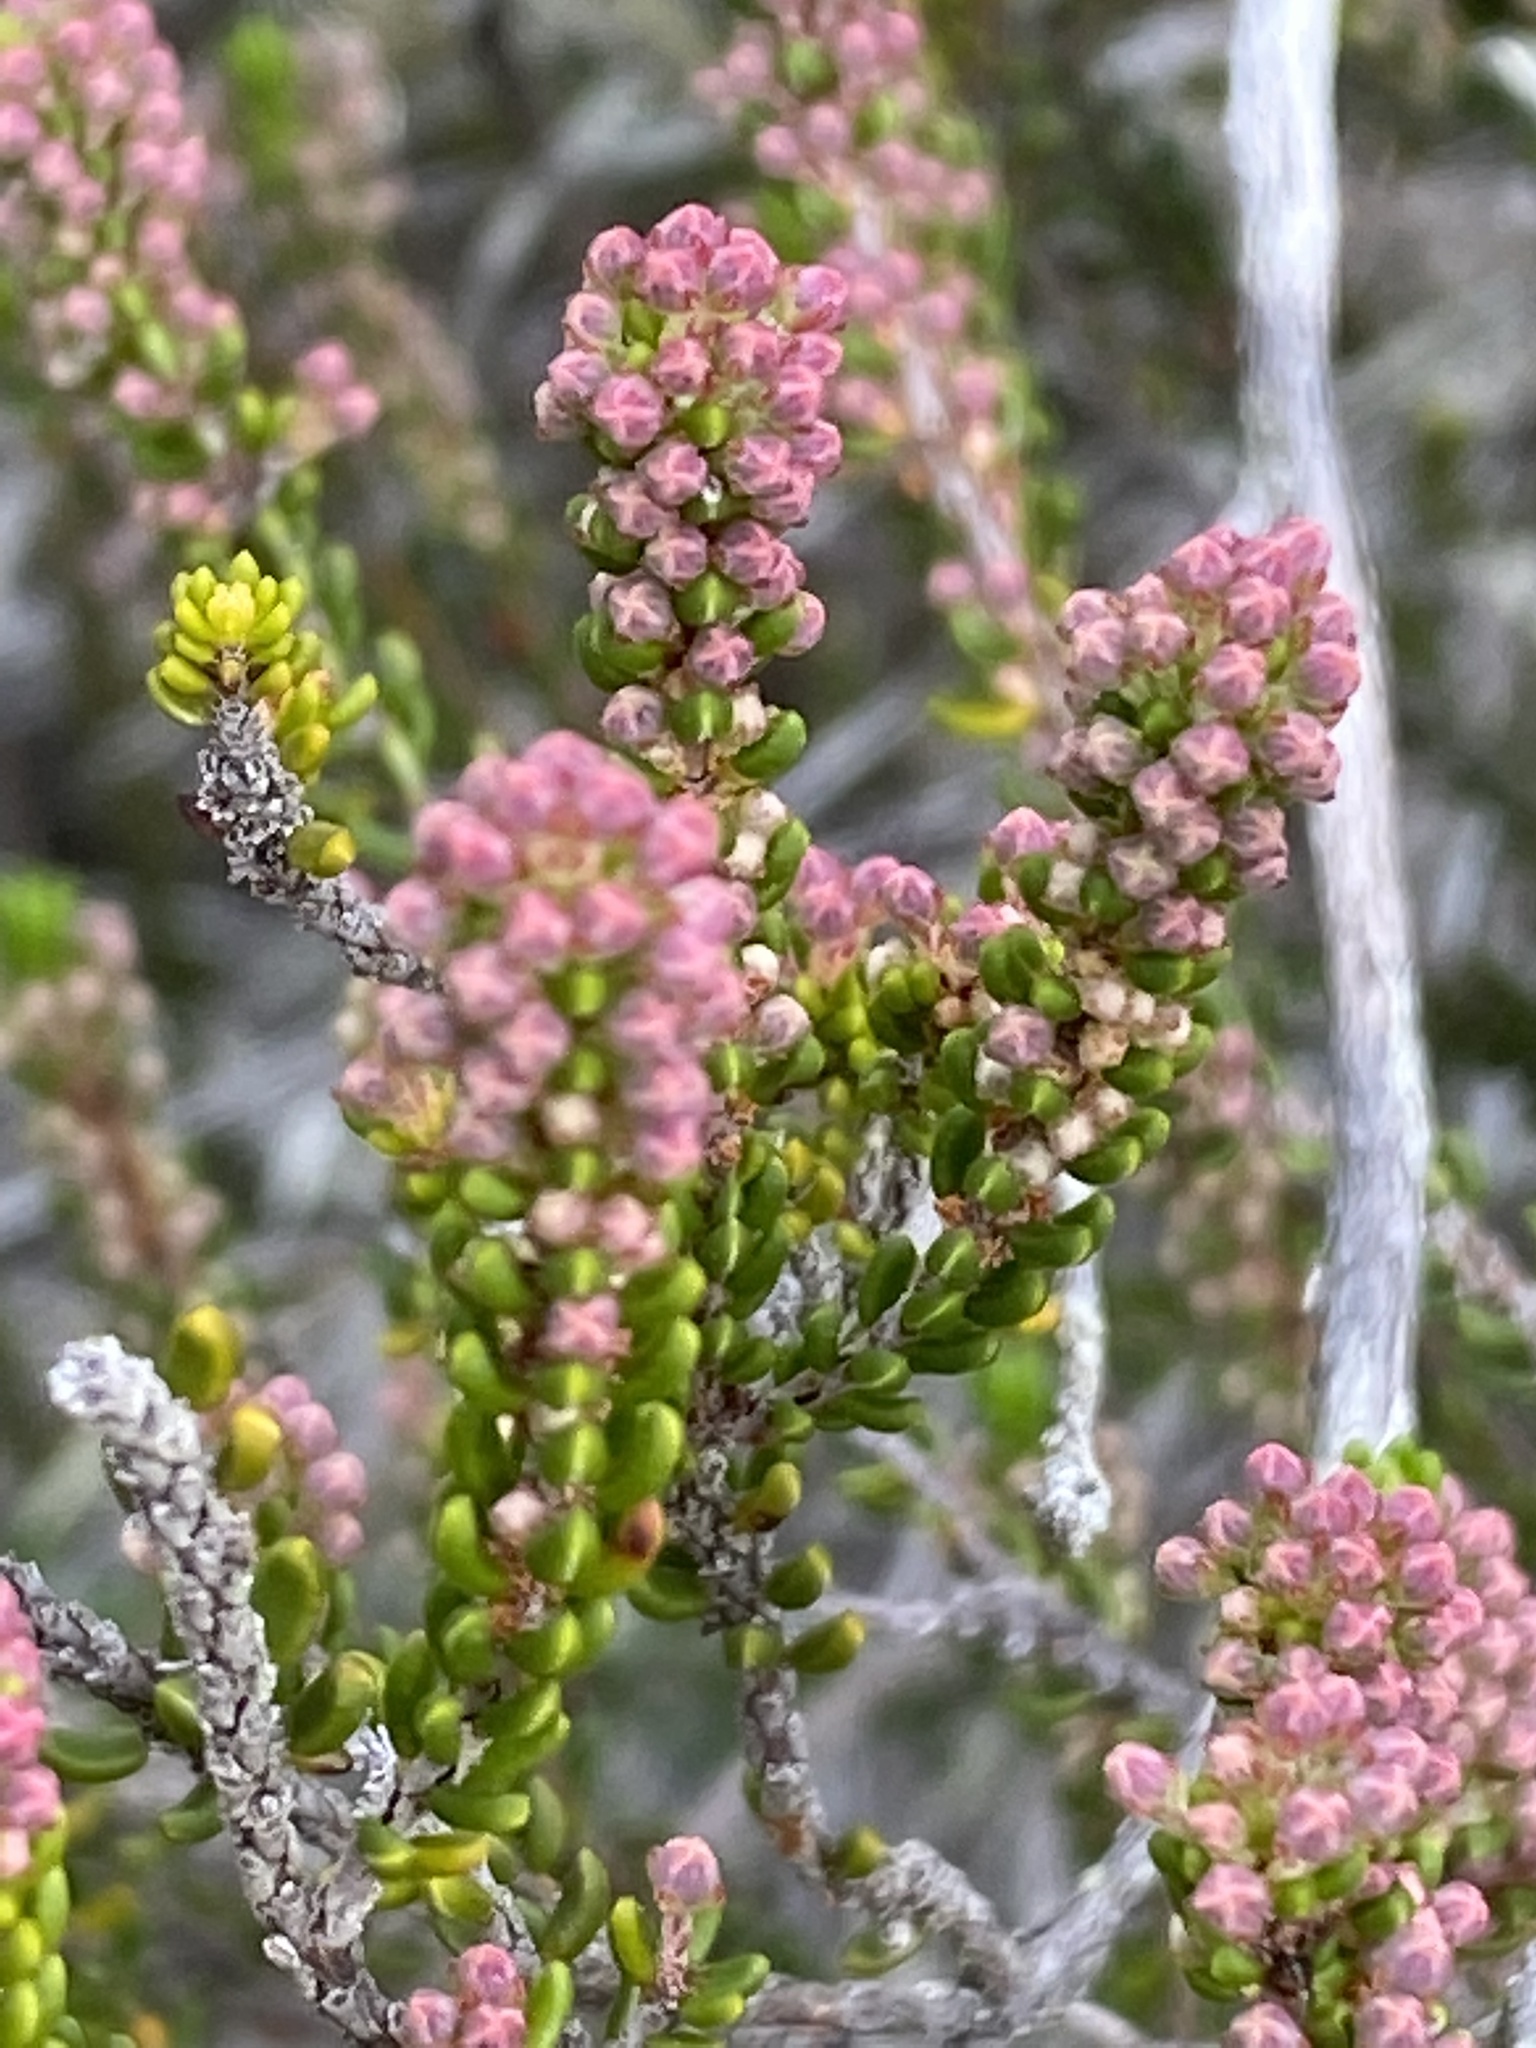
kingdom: Plantae
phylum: Tracheophyta
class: Magnoliopsida
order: Ericales
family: Ericaceae
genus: Erica
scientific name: Erica curtophylla
